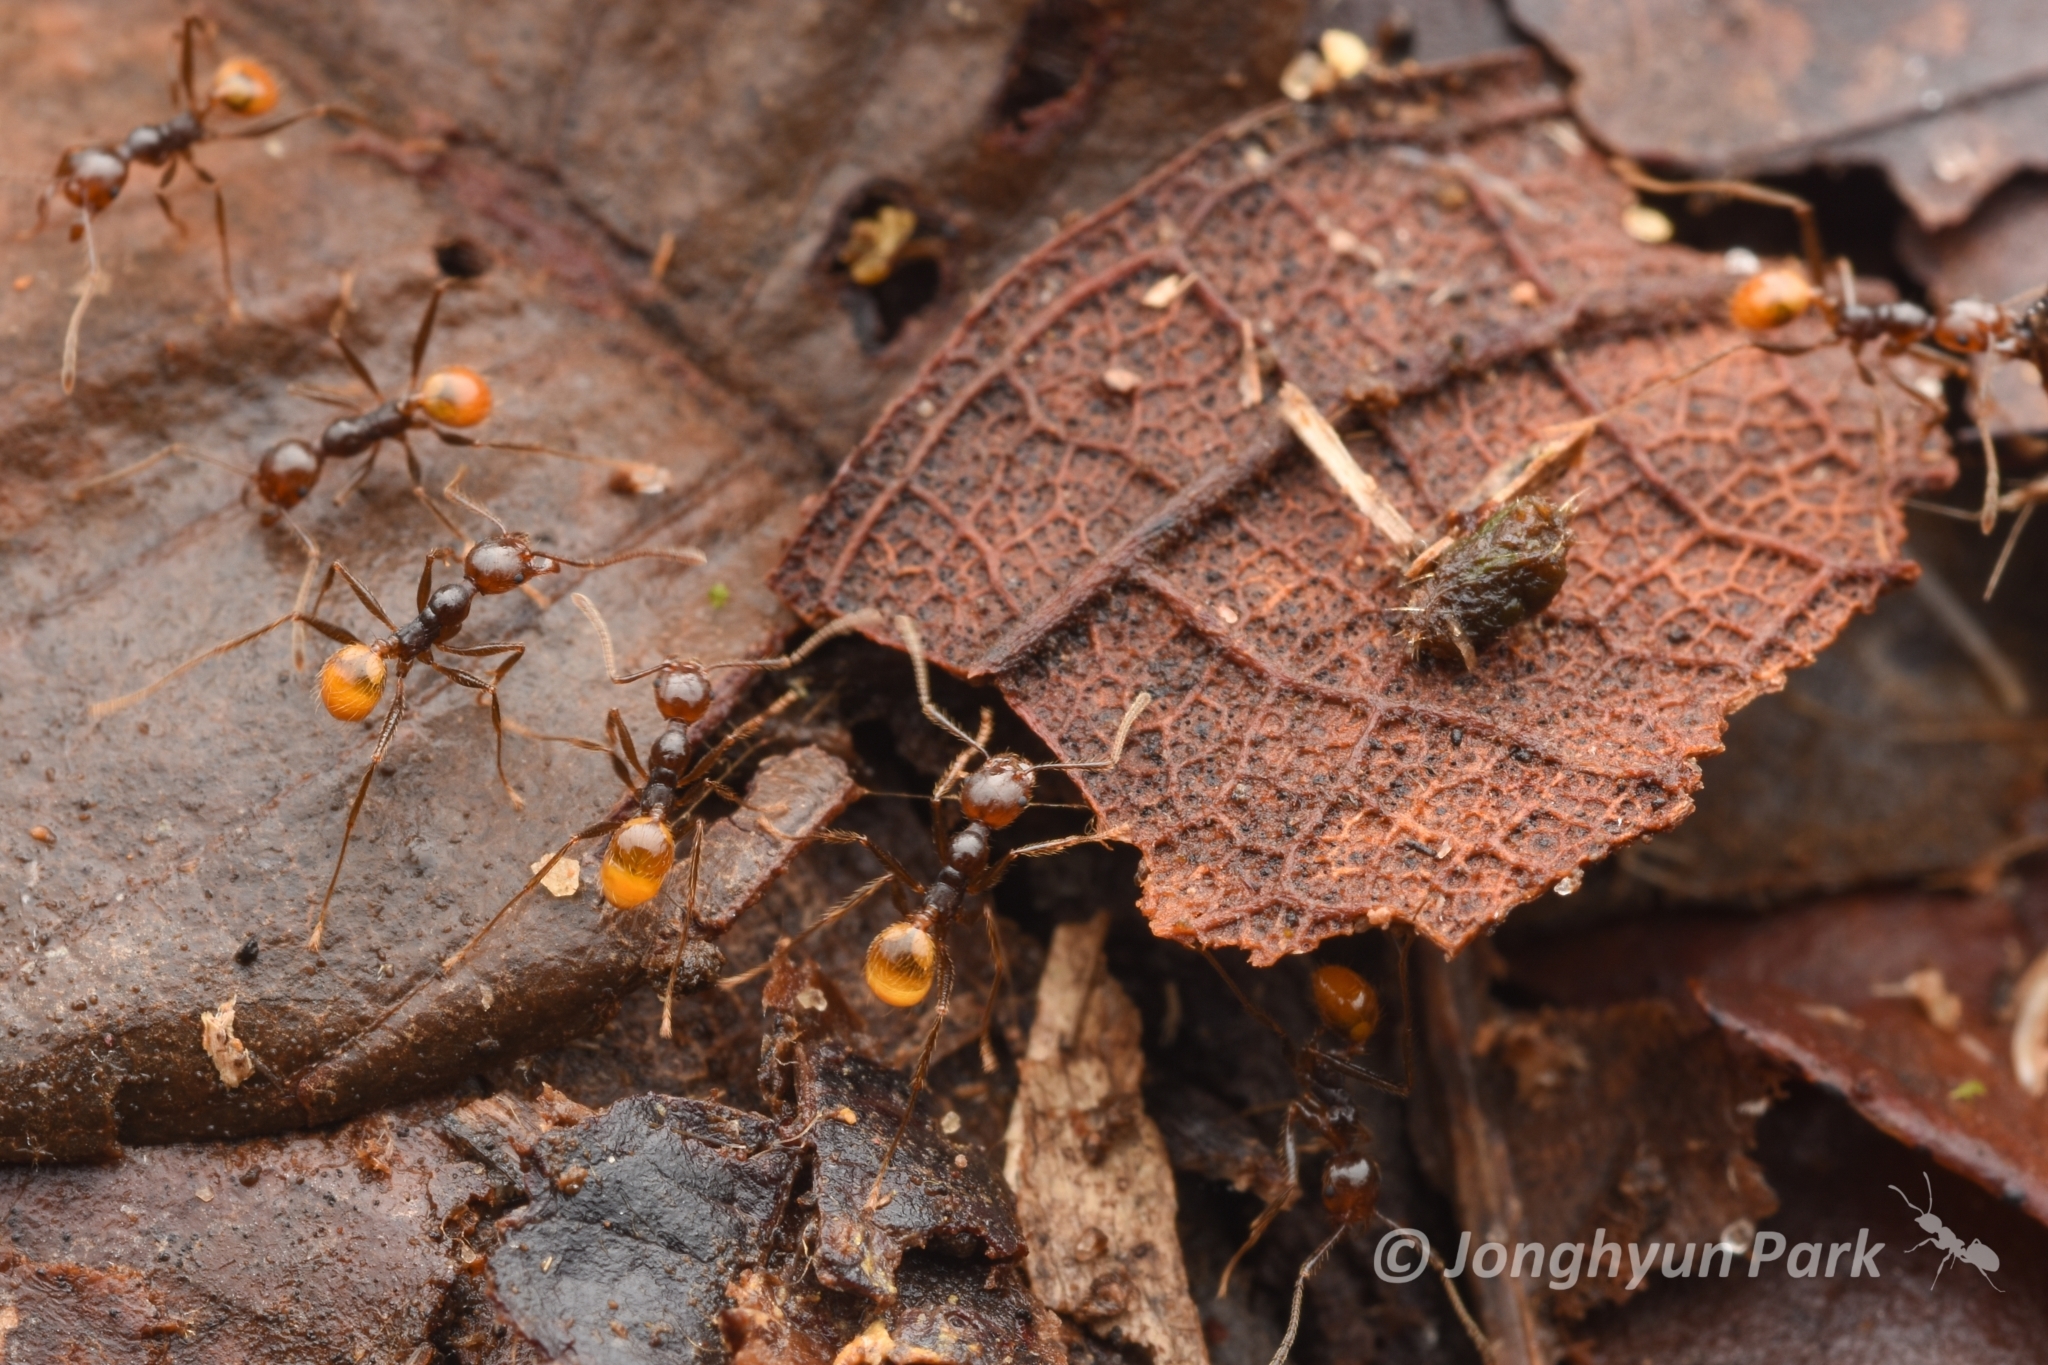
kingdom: Animalia
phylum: Arthropoda
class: Insecta
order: Hymenoptera
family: Formicidae
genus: Pheidole
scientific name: Pheidole xanthogaster
